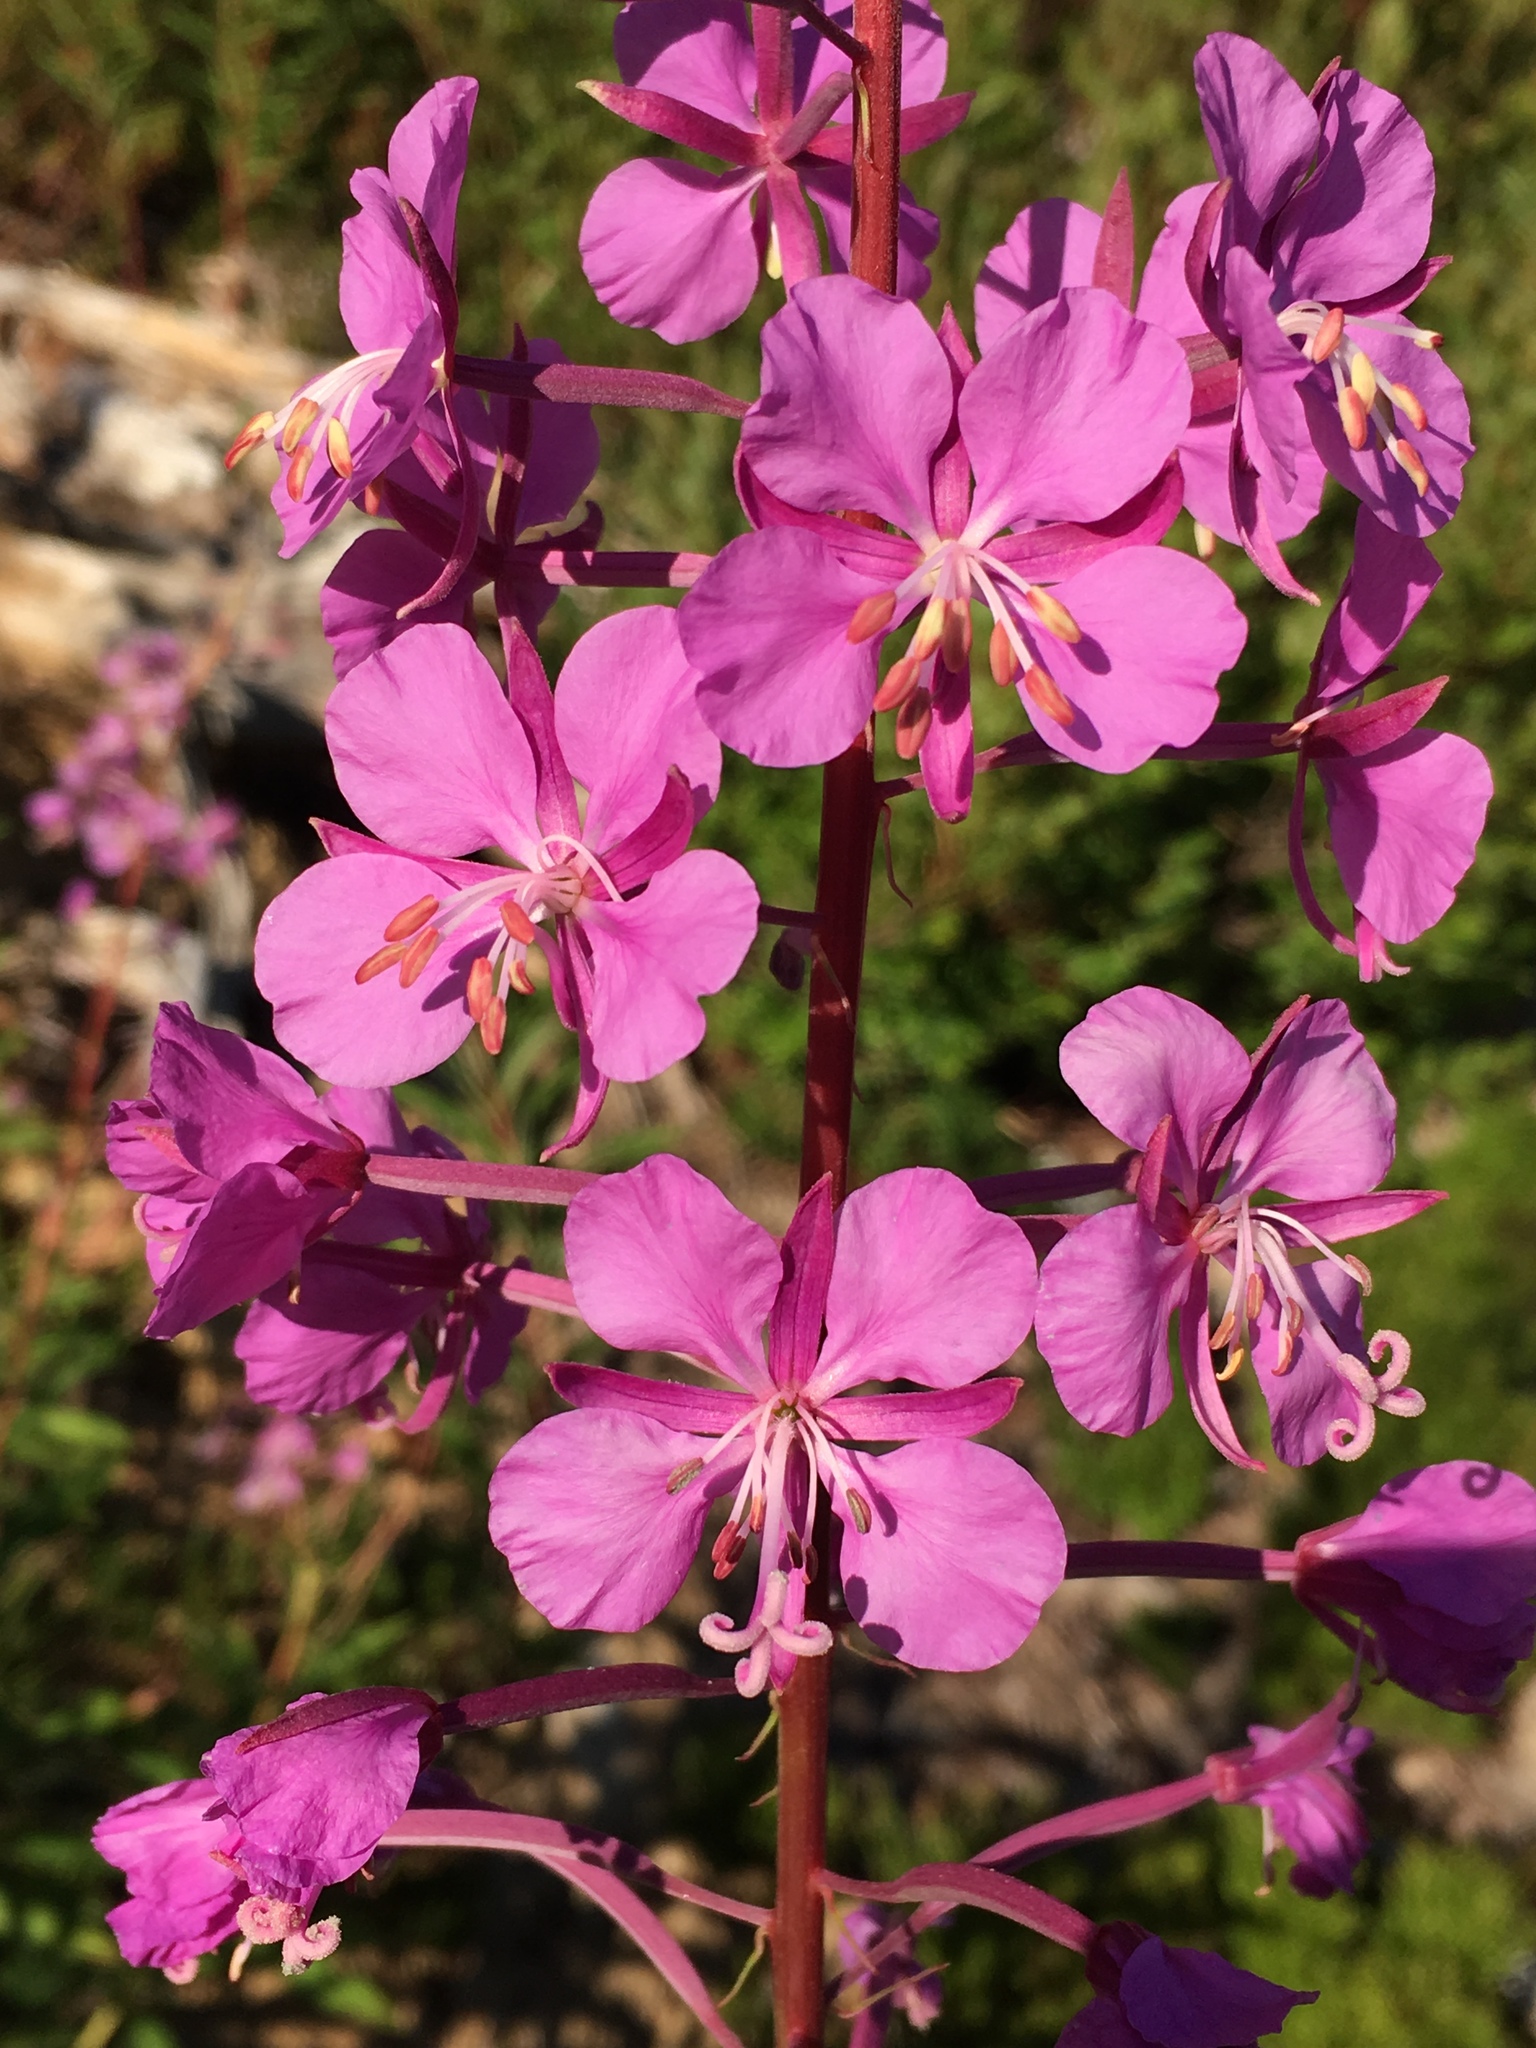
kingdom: Plantae
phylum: Tracheophyta
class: Magnoliopsida
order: Myrtales
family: Onagraceae
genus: Chamaenerion
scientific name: Chamaenerion angustifolium
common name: Fireweed
